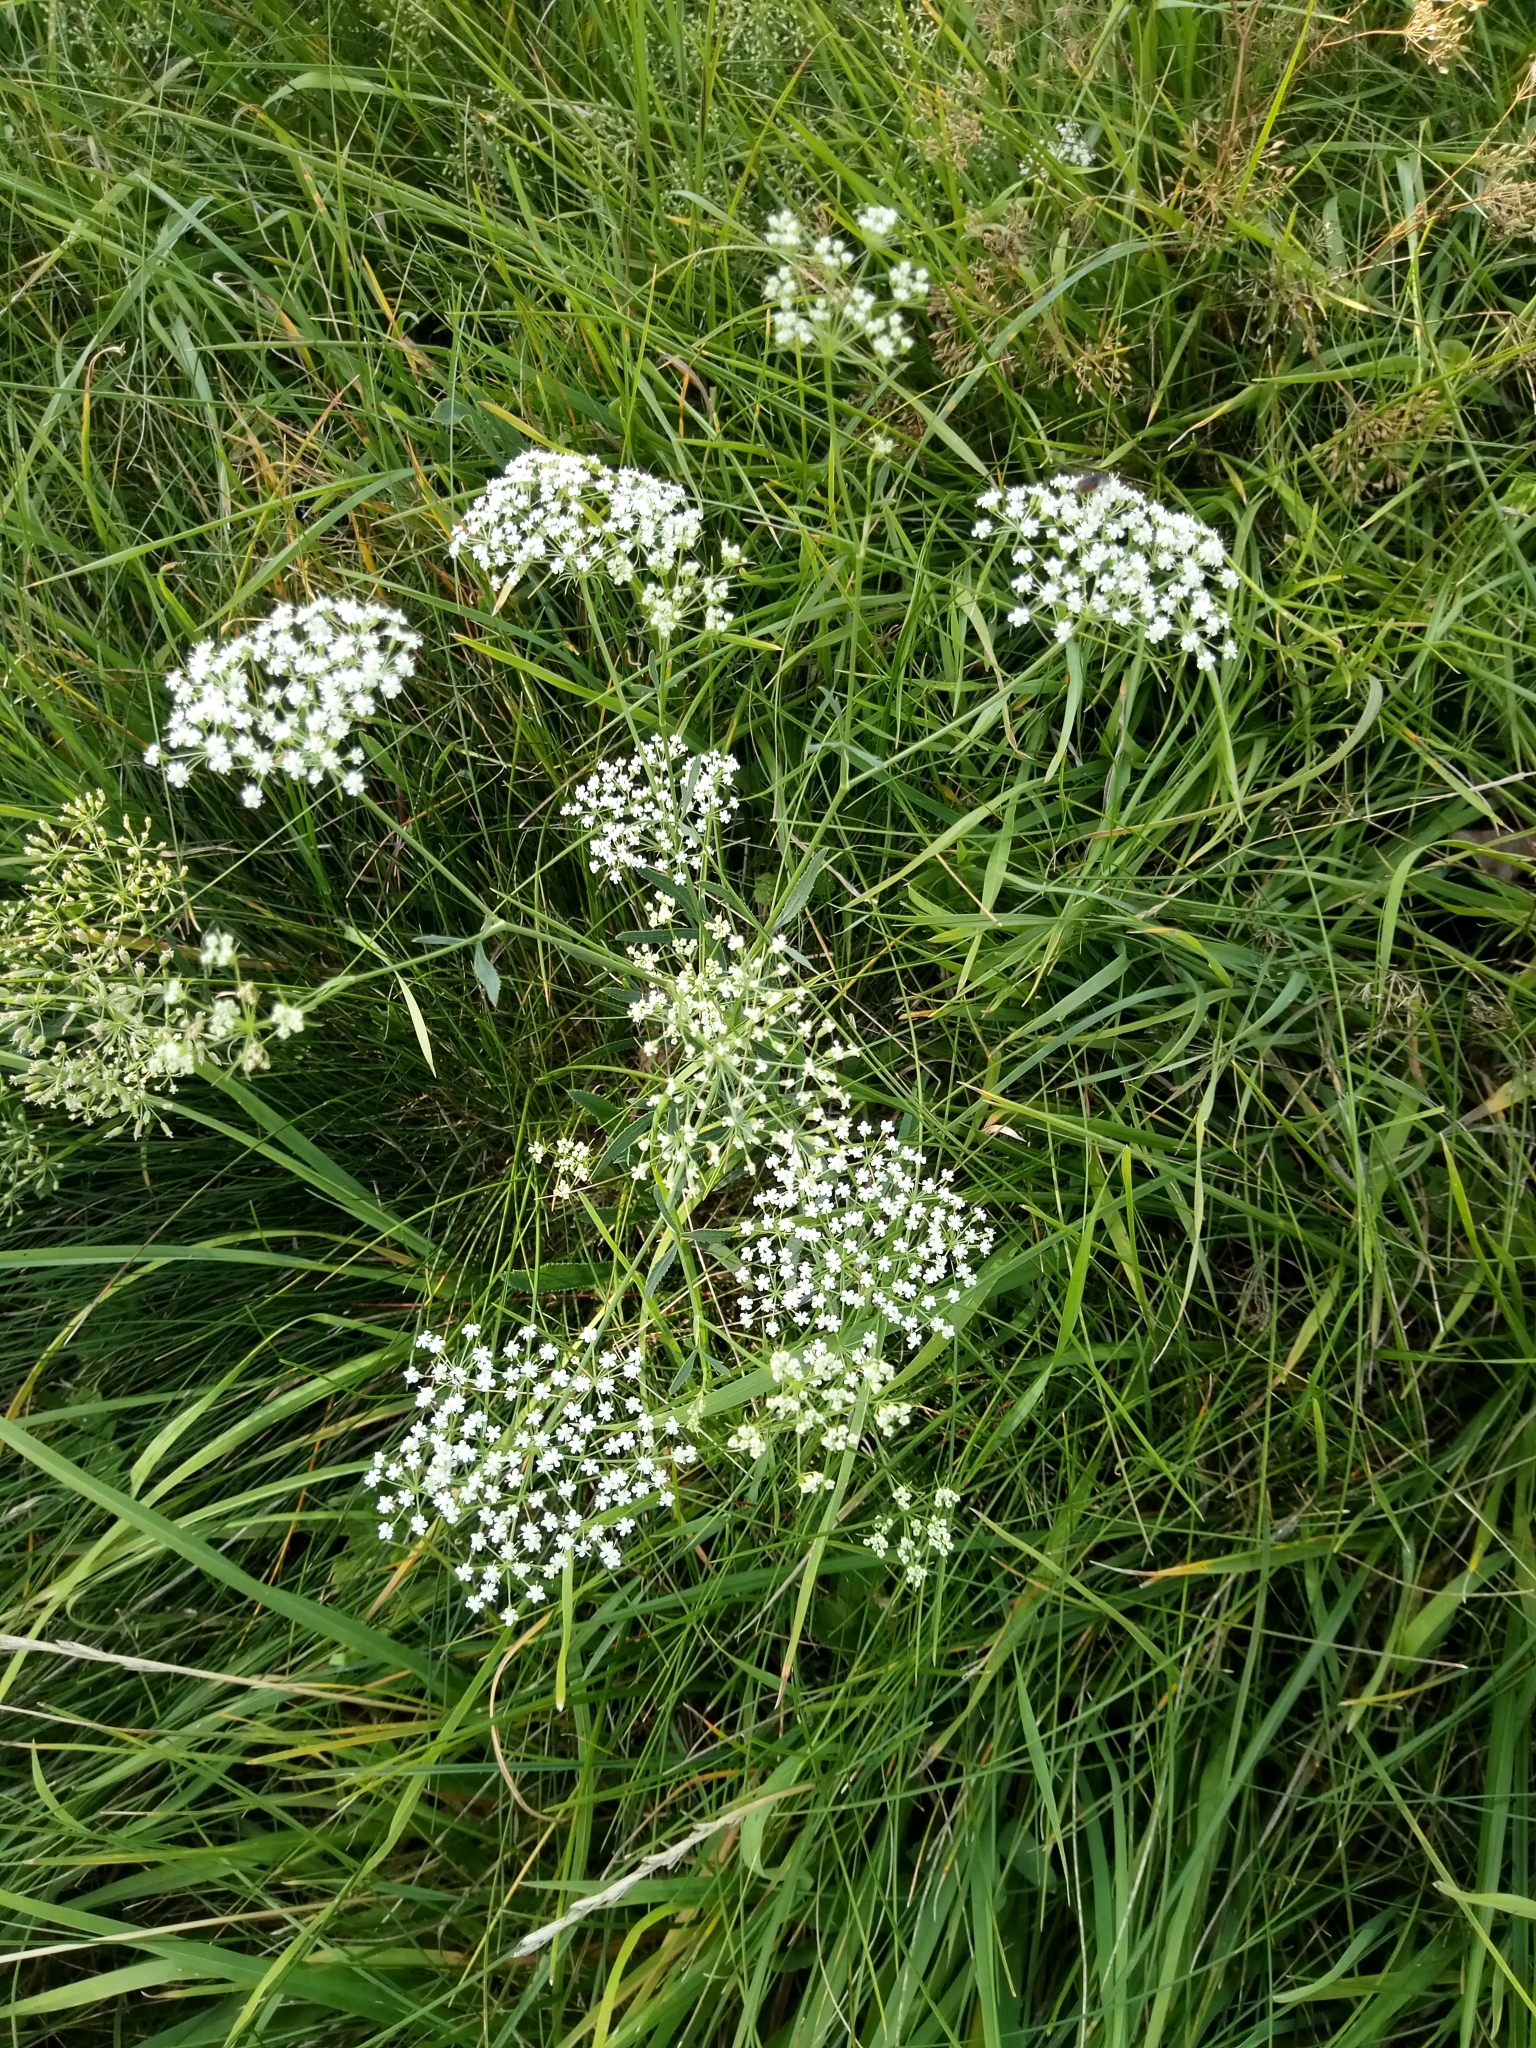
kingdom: Plantae
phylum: Tracheophyta
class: Magnoliopsida
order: Apiales
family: Apiaceae
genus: Falcaria
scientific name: Falcaria vulgaris
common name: Longleaf
